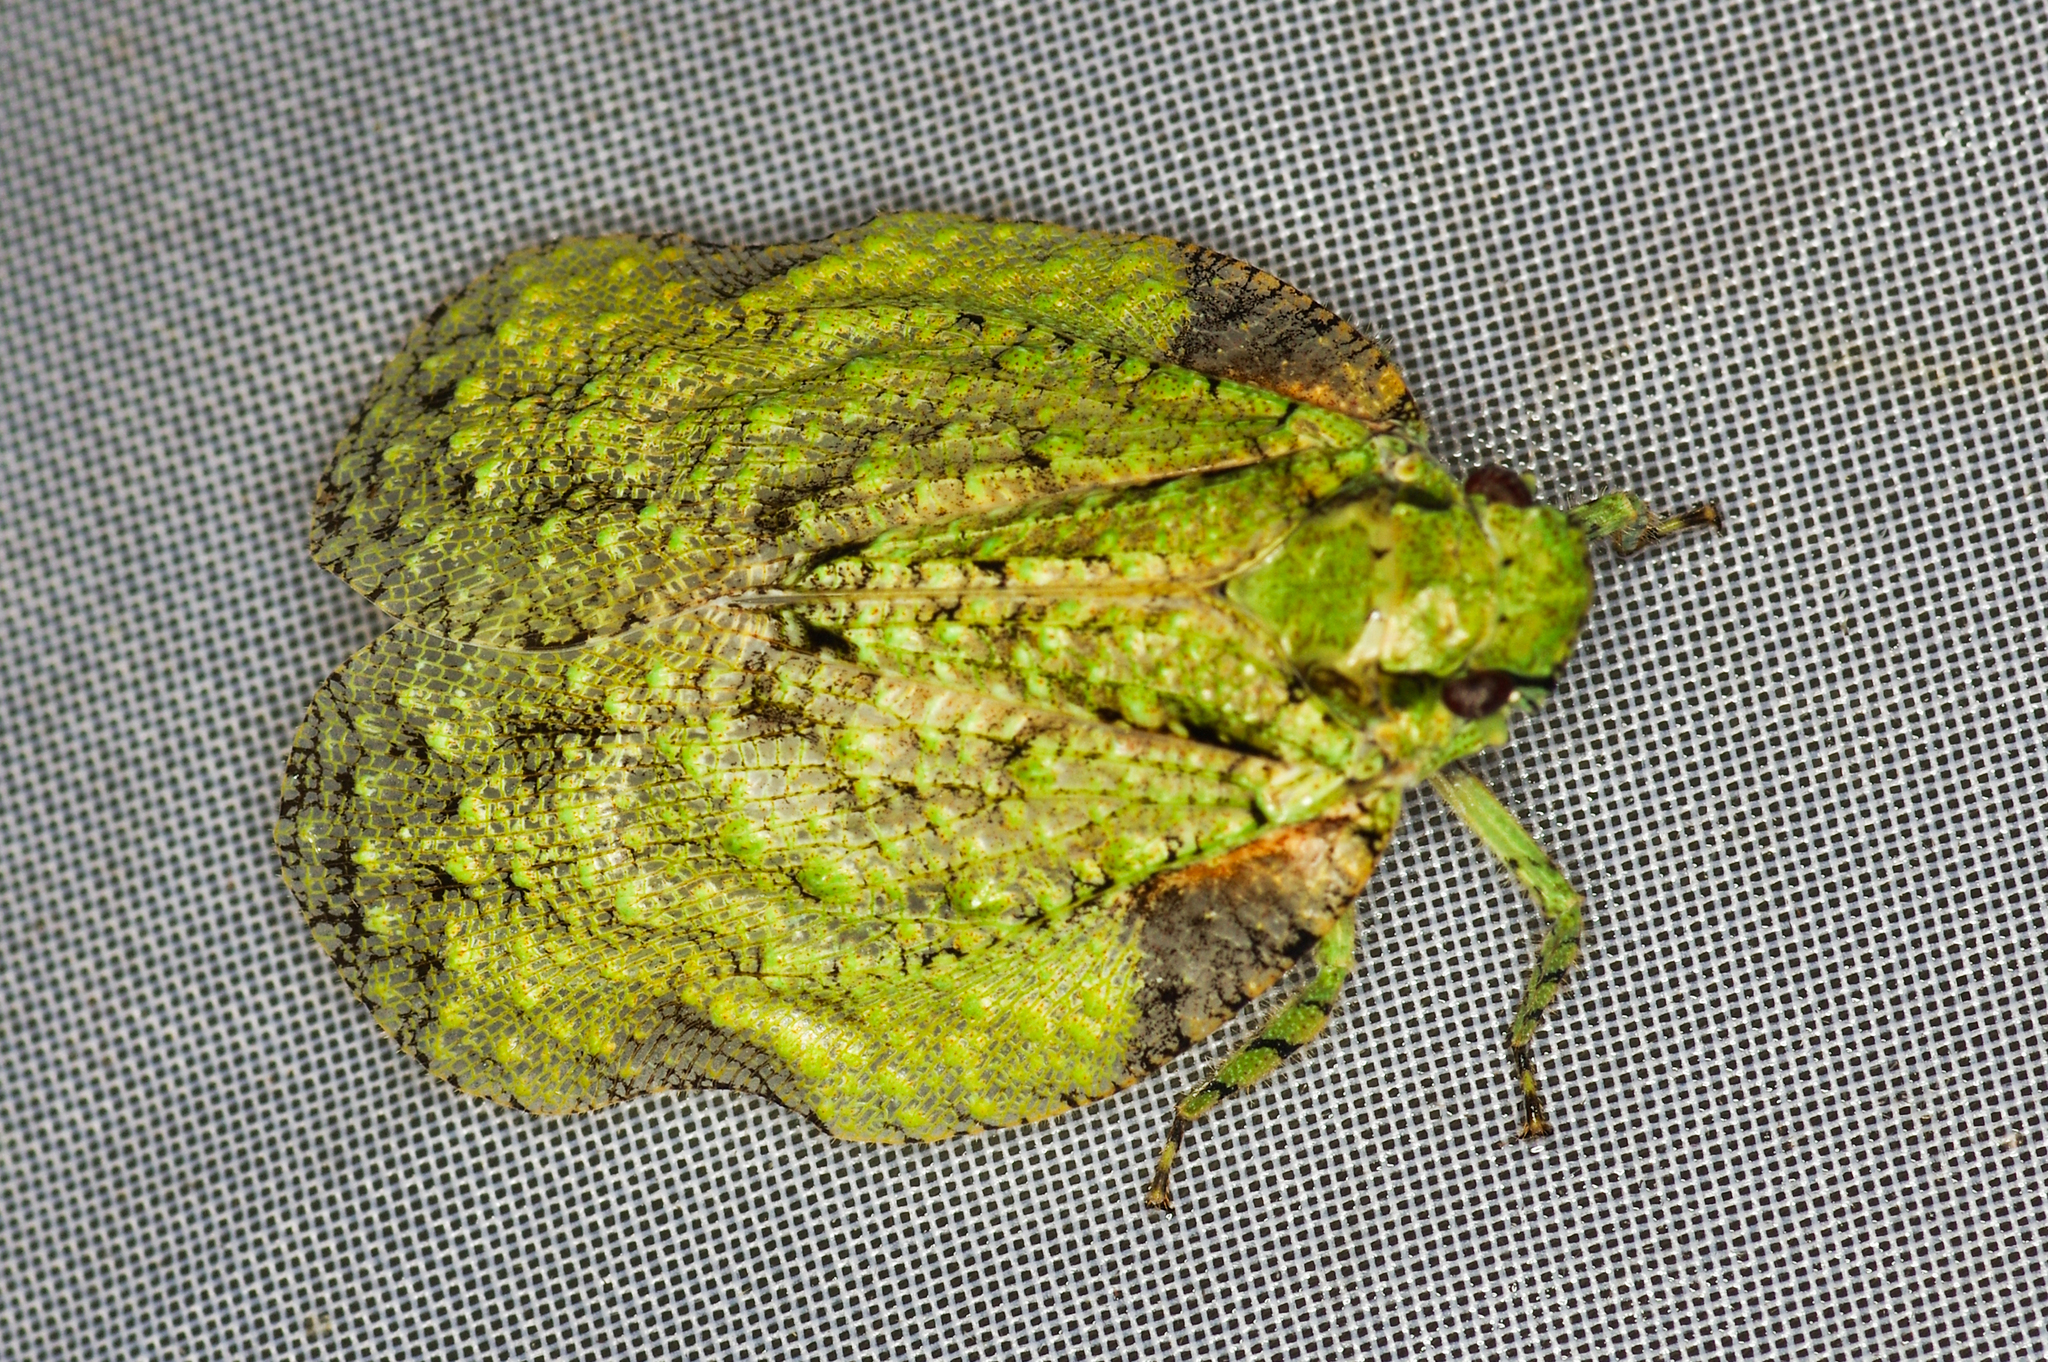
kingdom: Animalia
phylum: Arthropoda
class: Insecta
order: Hemiptera
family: Fulgoridae
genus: Flatolystra
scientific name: Flatolystra verrucosa
